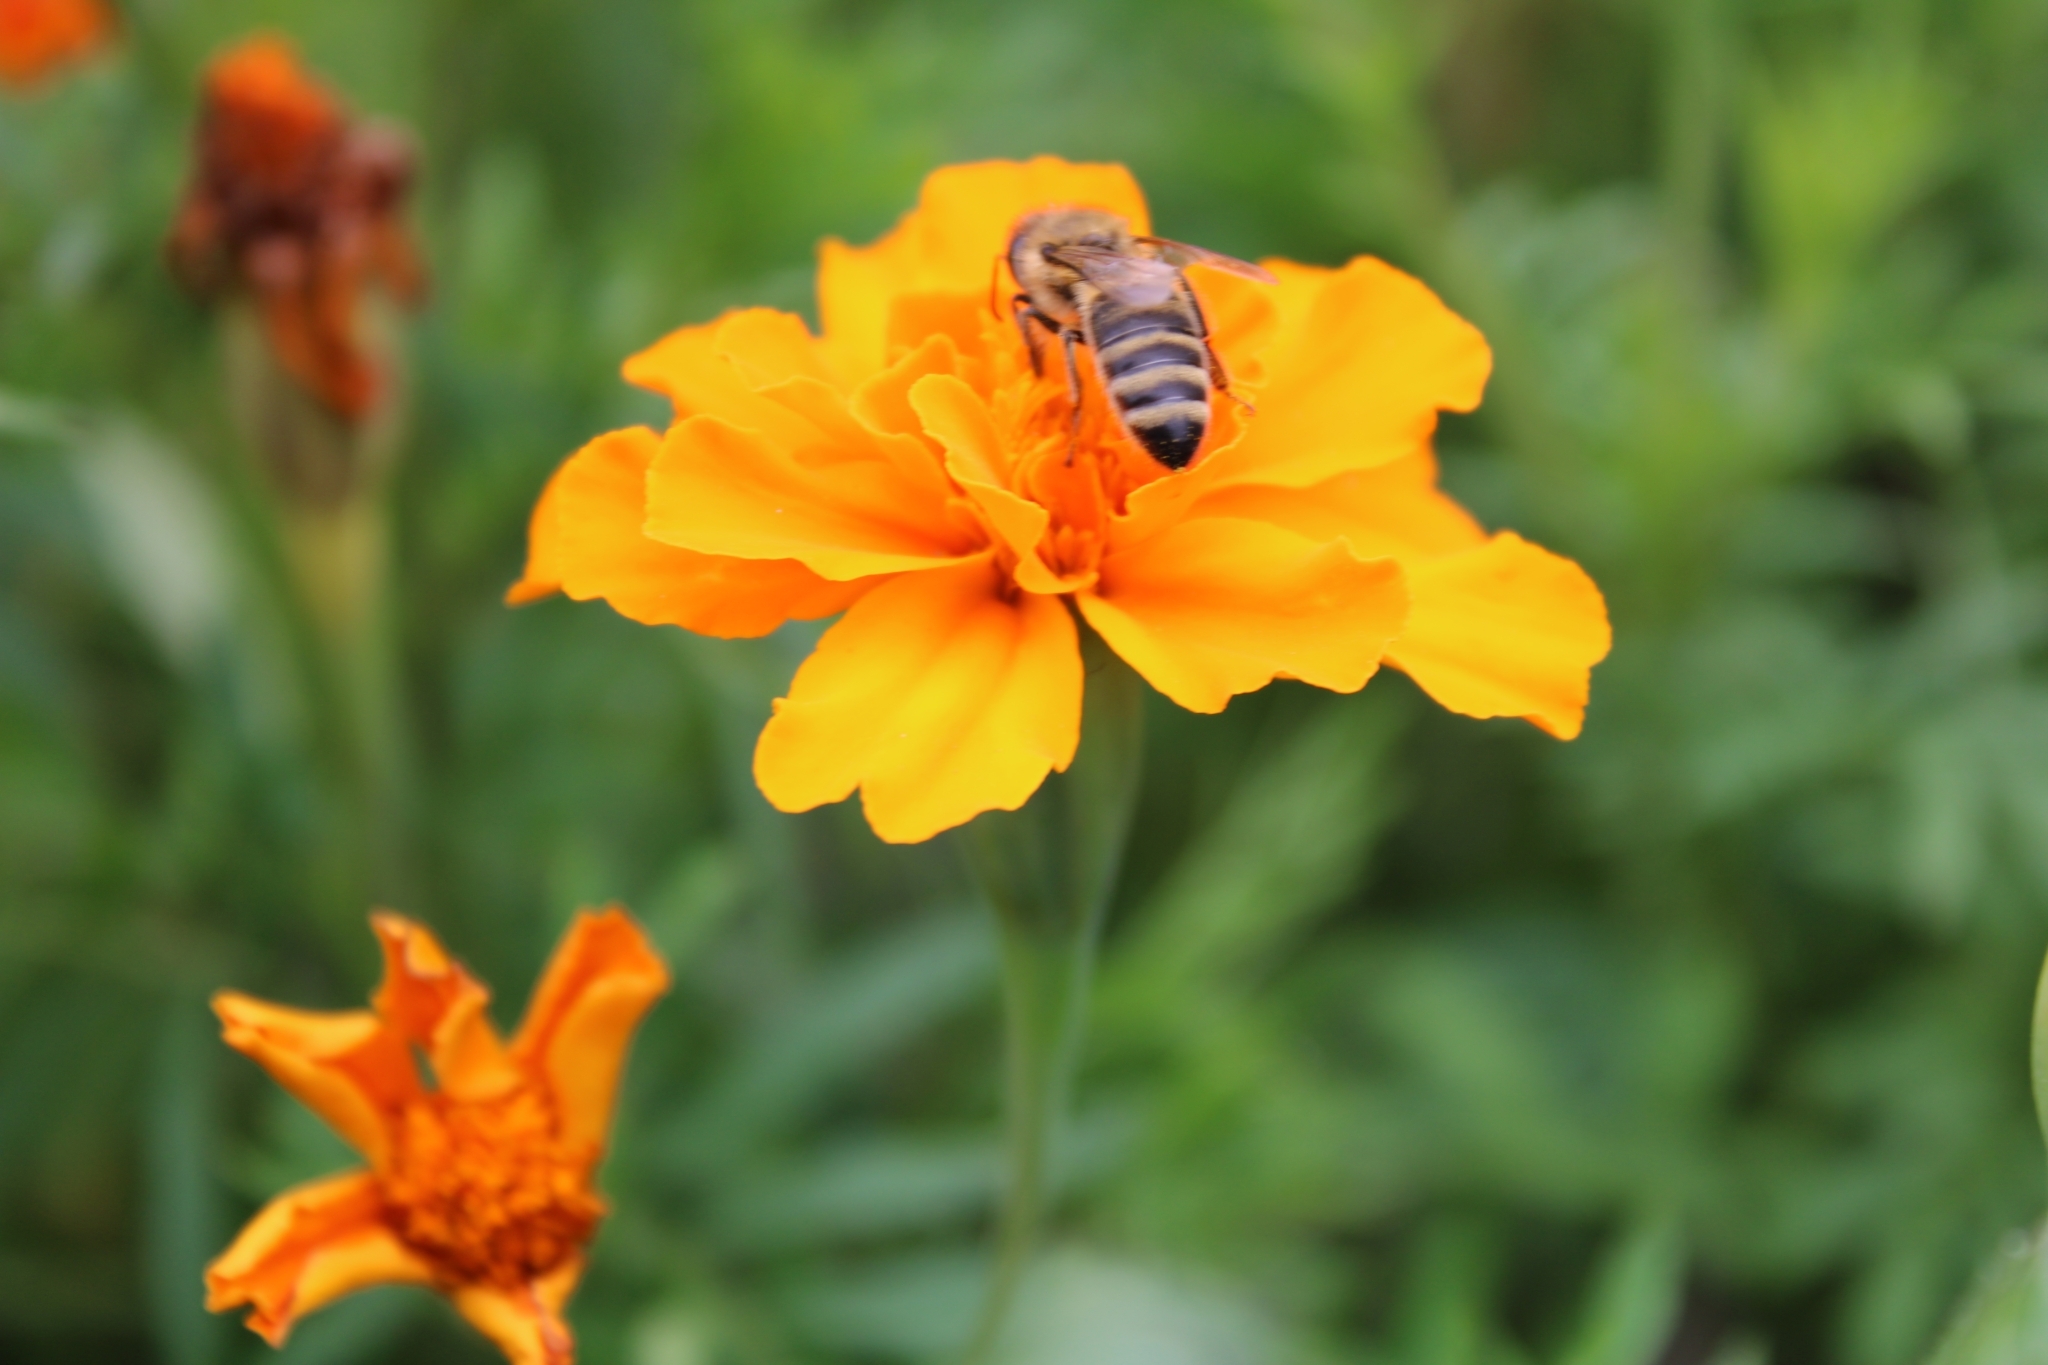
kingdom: Animalia
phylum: Arthropoda
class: Insecta
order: Hymenoptera
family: Apidae
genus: Apis
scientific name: Apis mellifera
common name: Honey bee
